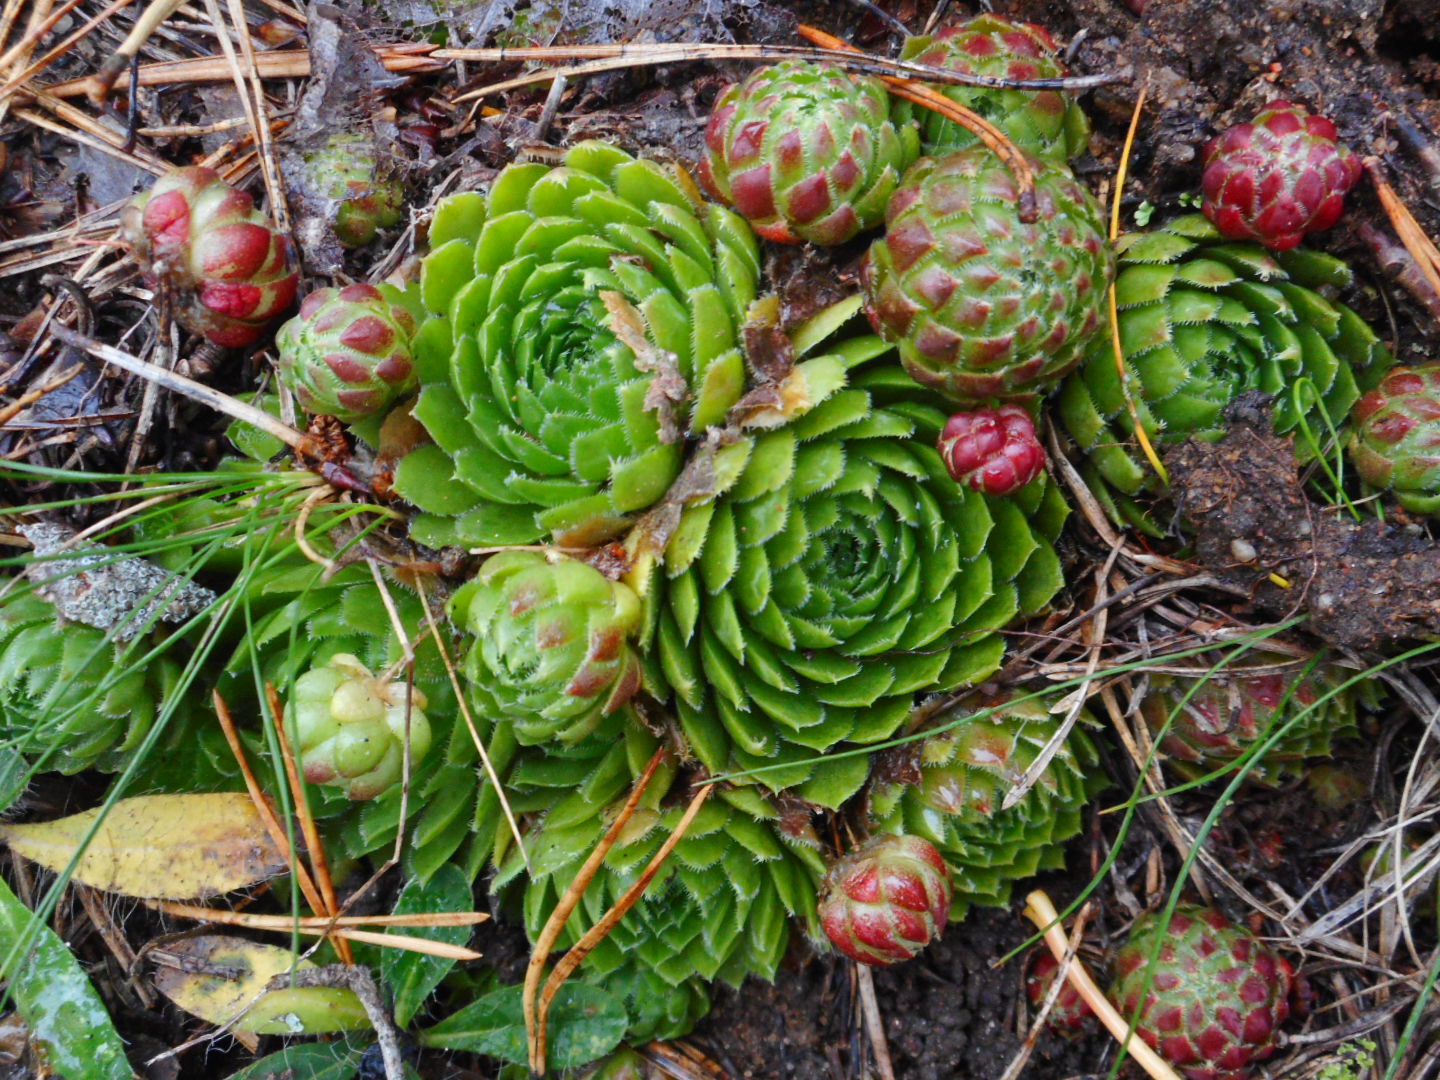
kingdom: Plantae
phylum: Tracheophyta
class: Magnoliopsida
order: Saxifragales
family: Crassulaceae
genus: Sempervivum
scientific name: Sempervivum globiferum
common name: Rolling hen-and-chicks
